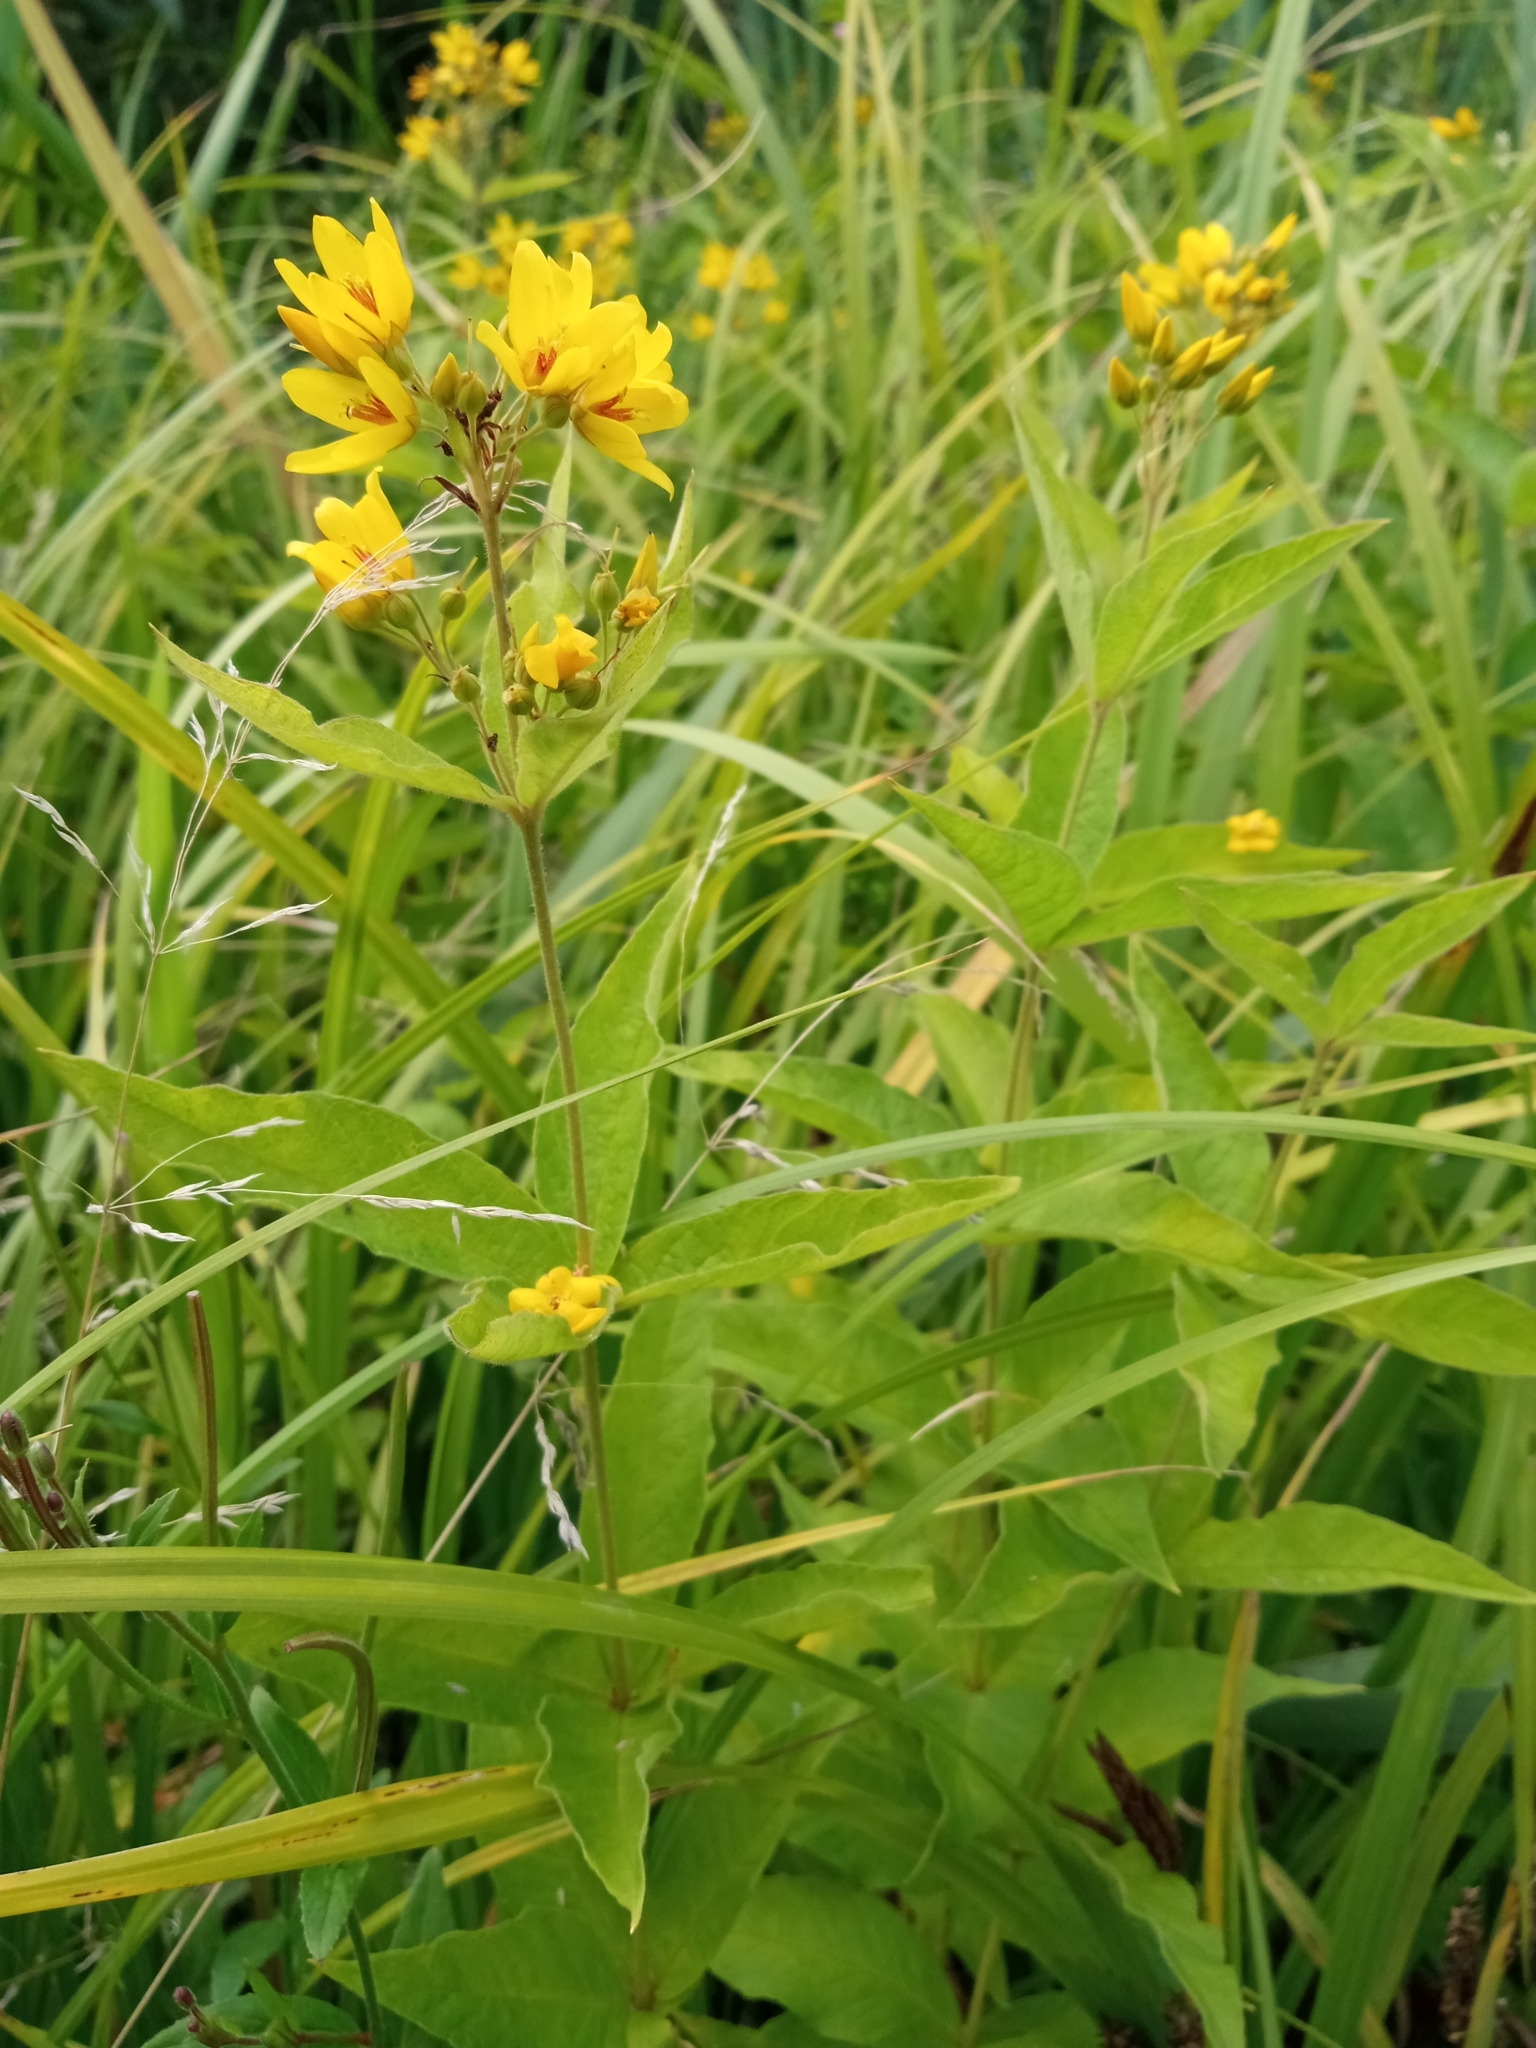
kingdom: Plantae
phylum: Tracheophyta
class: Magnoliopsida
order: Ericales
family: Primulaceae
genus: Lysimachia
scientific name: Lysimachia vulgaris
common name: Yellow loosestrife
